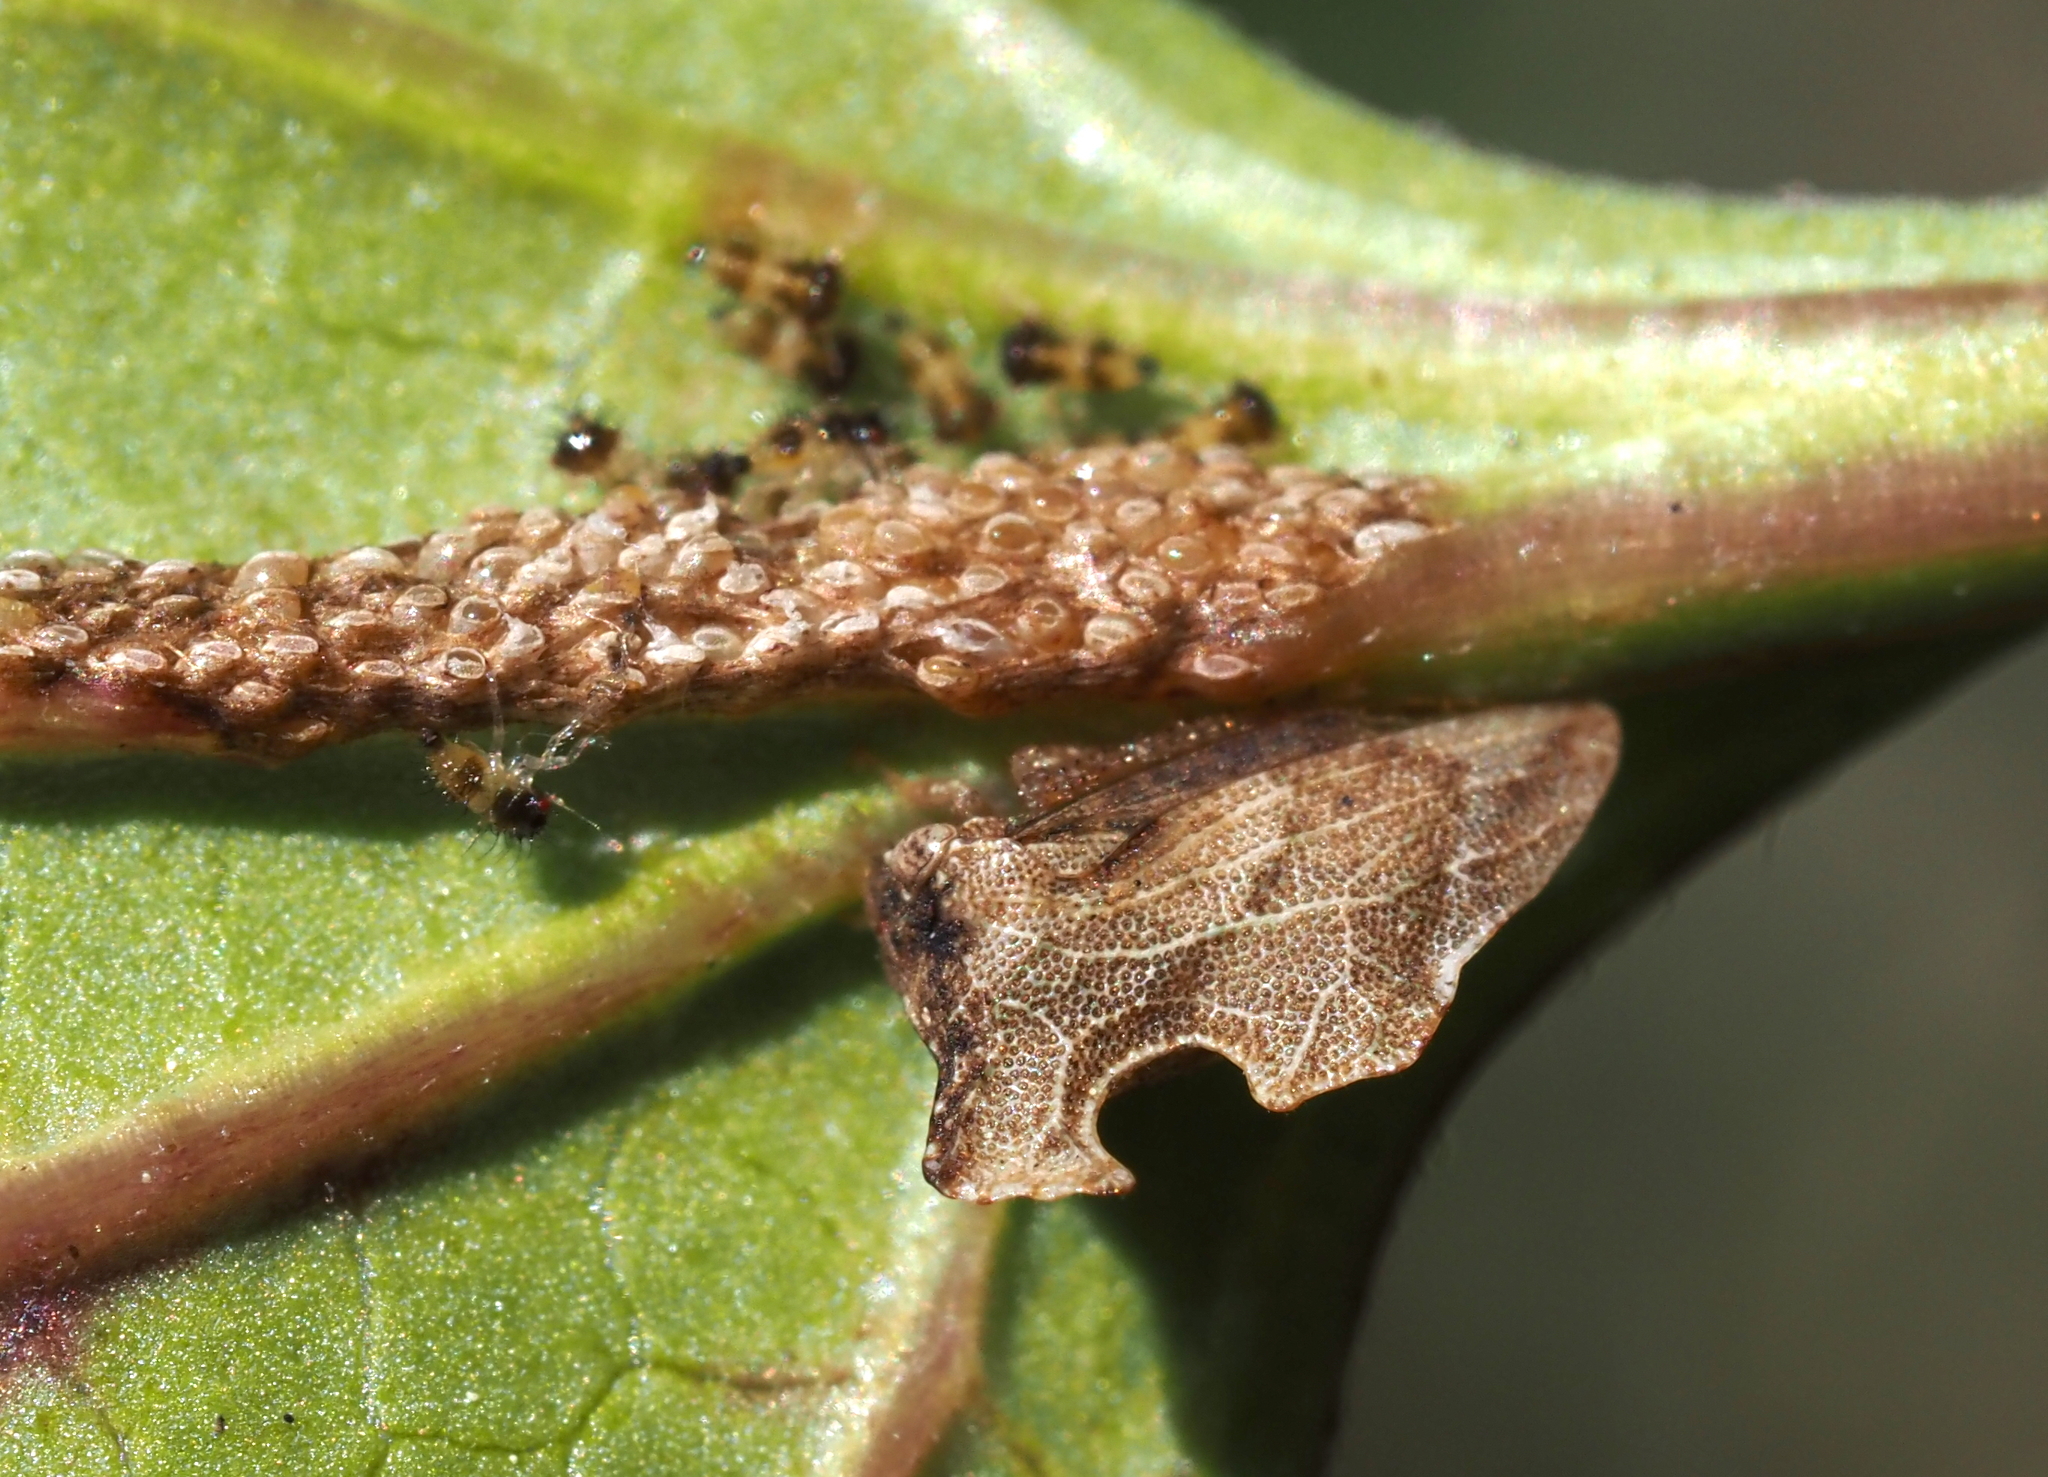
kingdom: Animalia
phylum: Arthropoda
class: Insecta
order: Hemiptera
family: Membracidae
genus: Entylia
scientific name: Entylia carinata
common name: Keeled treehopper
